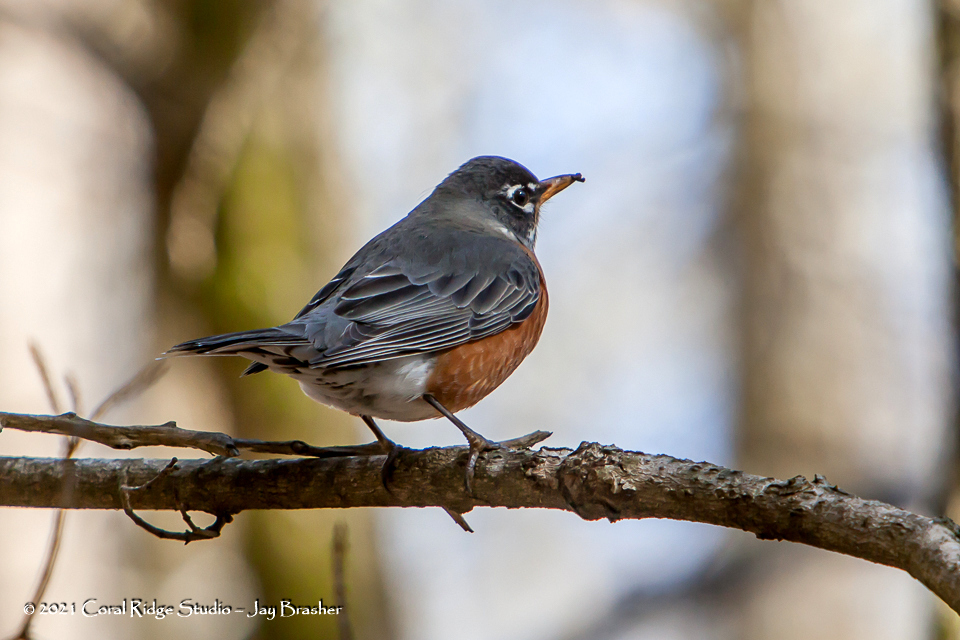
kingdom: Animalia
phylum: Chordata
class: Aves
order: Passeriformes
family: Turdidae
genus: Turdus
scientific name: Turdus migratorius
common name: American robin
